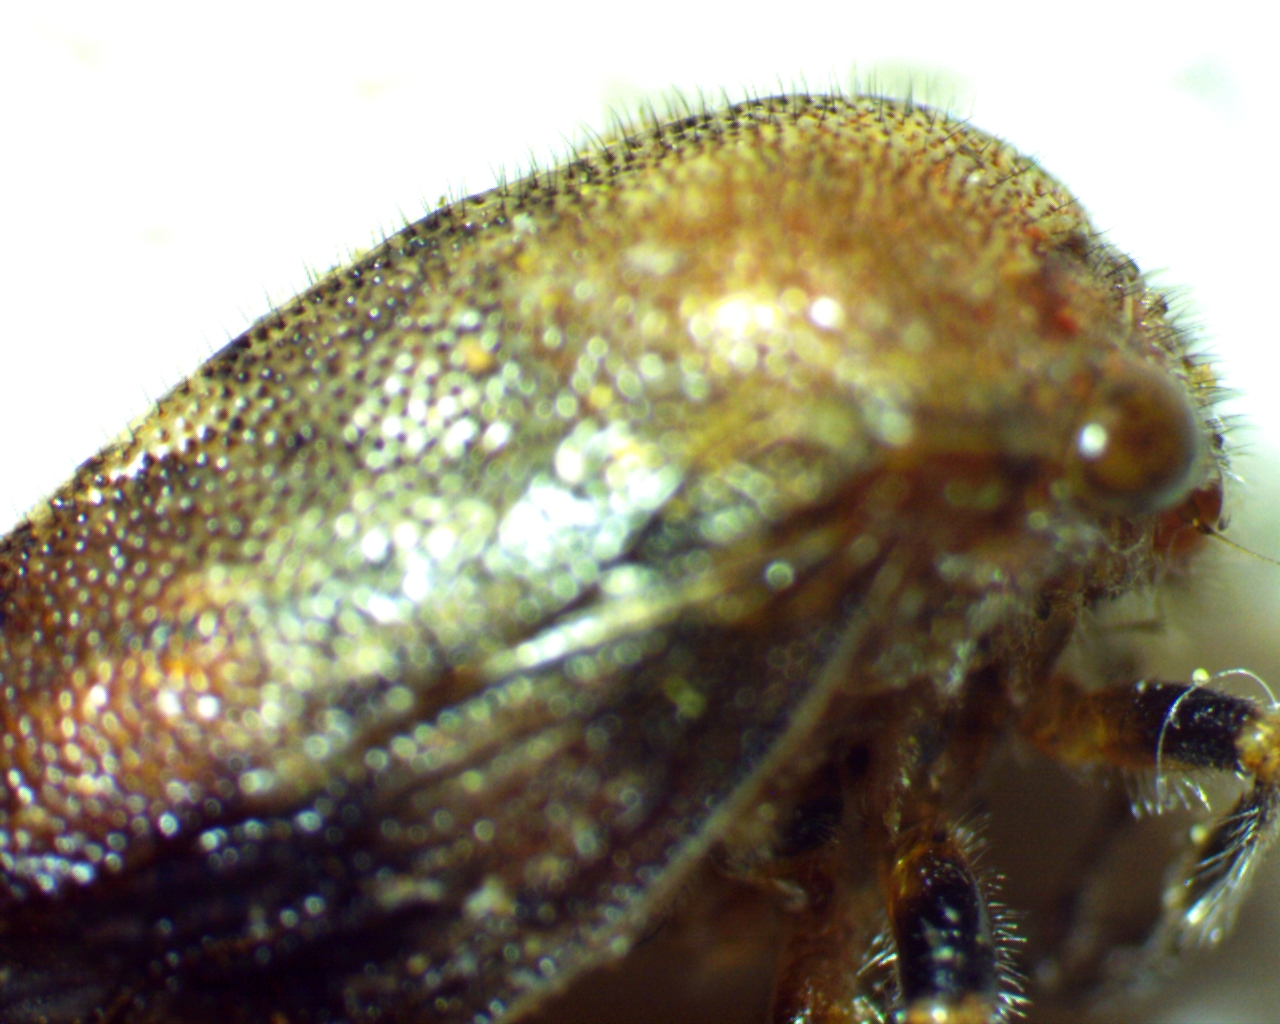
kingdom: Animalia
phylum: Arthropoda
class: Insecta
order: Hemiptera
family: Membracidae
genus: Ophiderma
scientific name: Ophiderma salamandra
